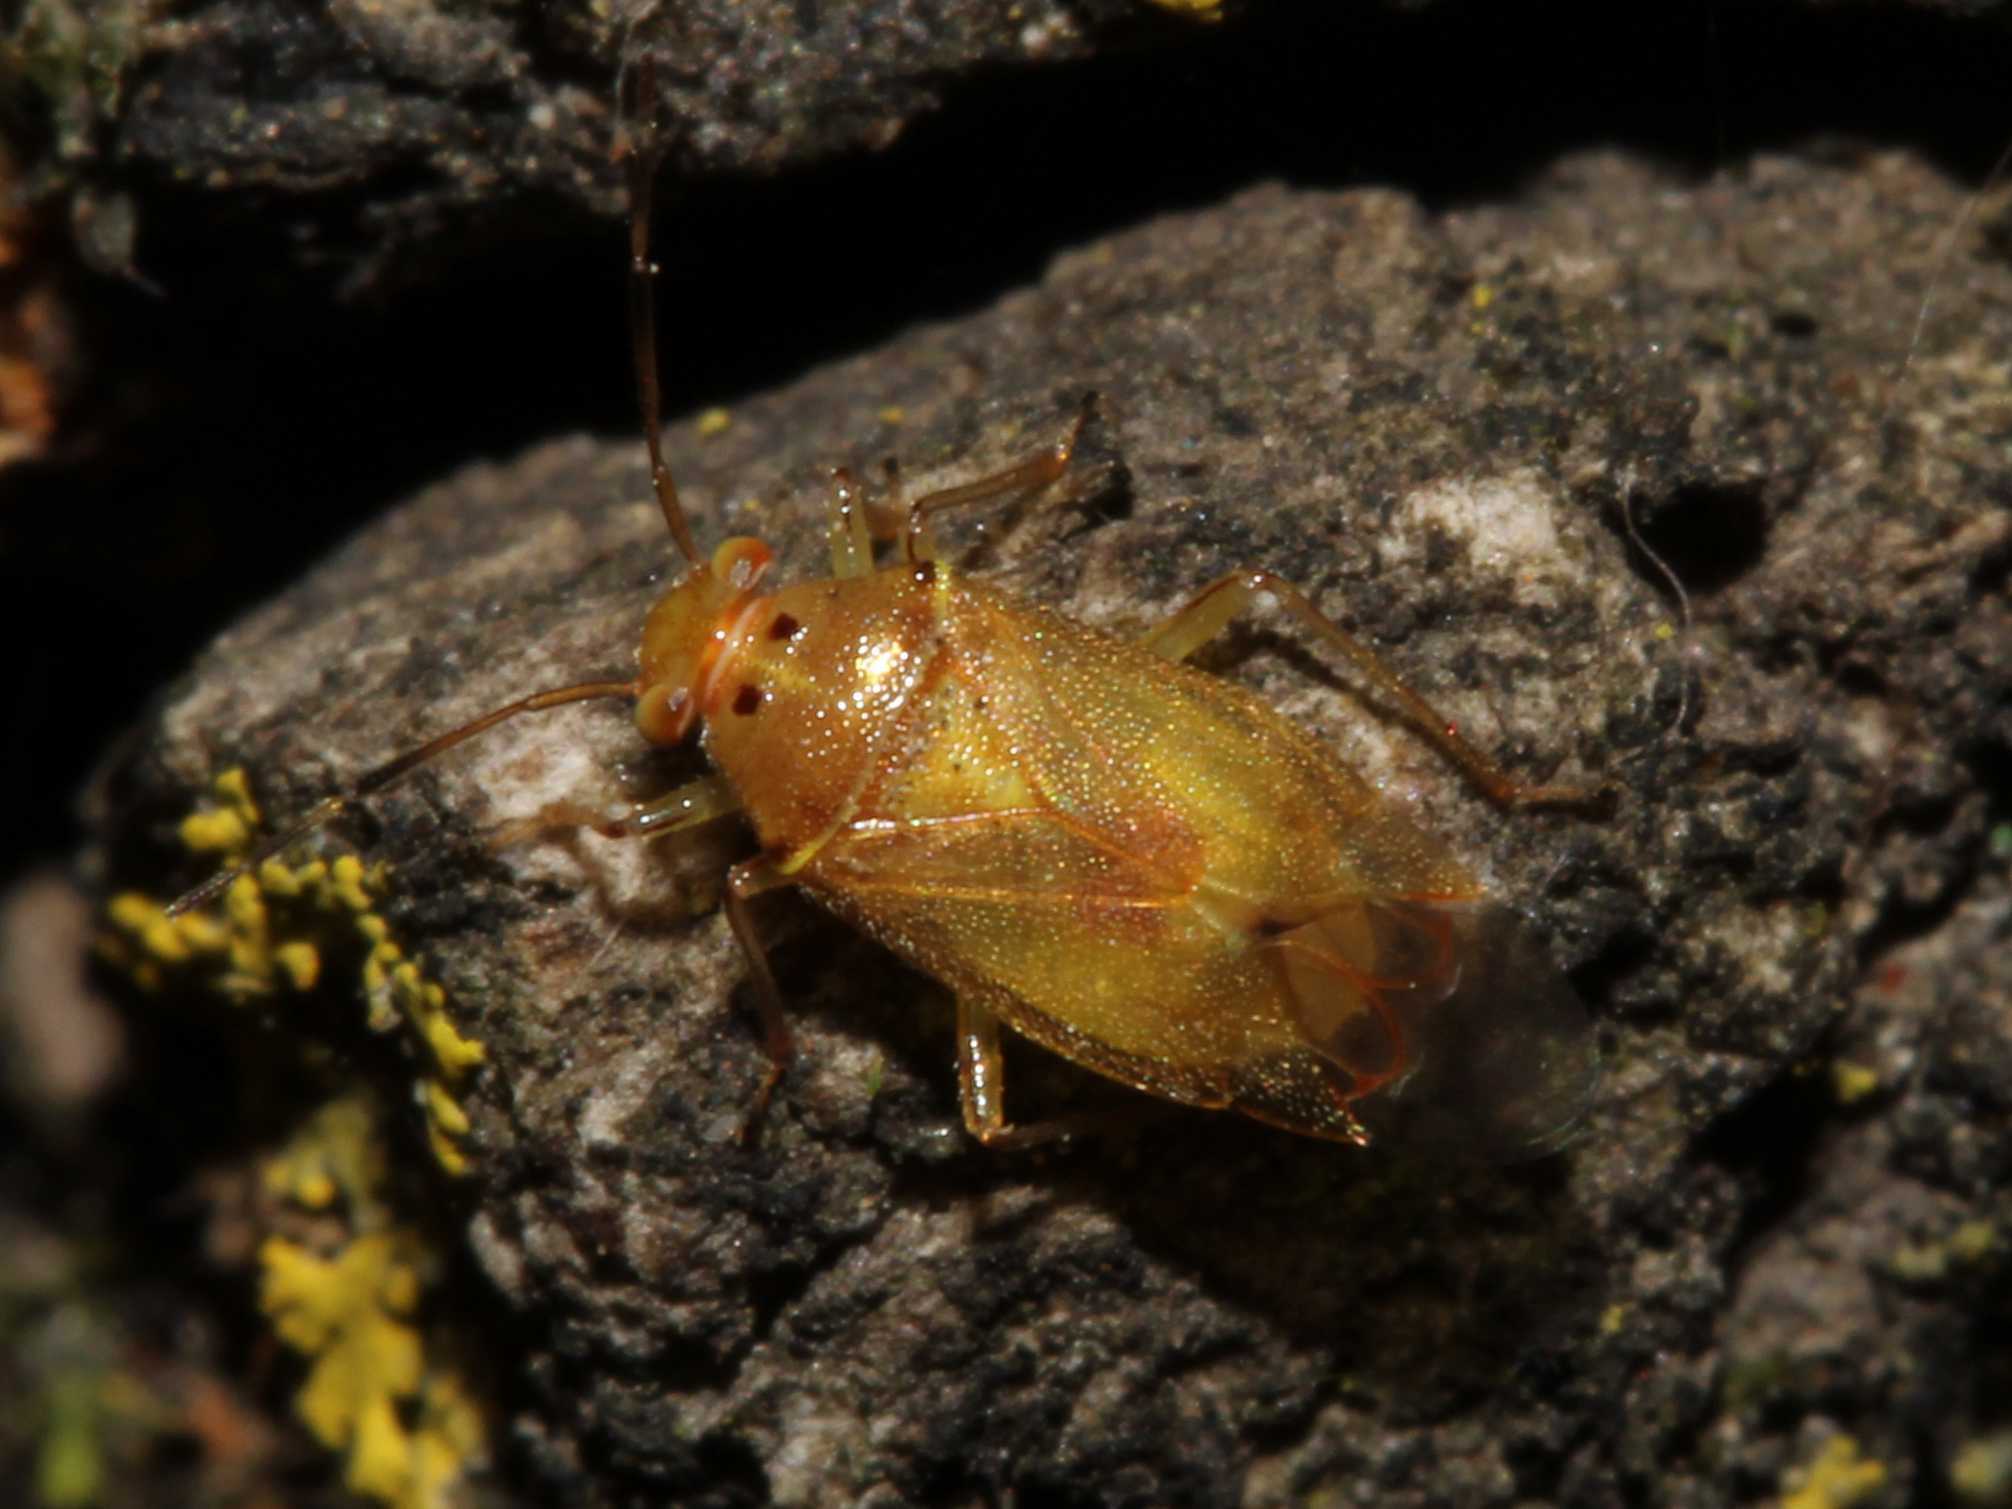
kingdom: Animalia
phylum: Arthropoda
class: Insecta
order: Hemiptera
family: Miridae
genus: Tropidosteptes
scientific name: Tropidosteptes chapingoensis
